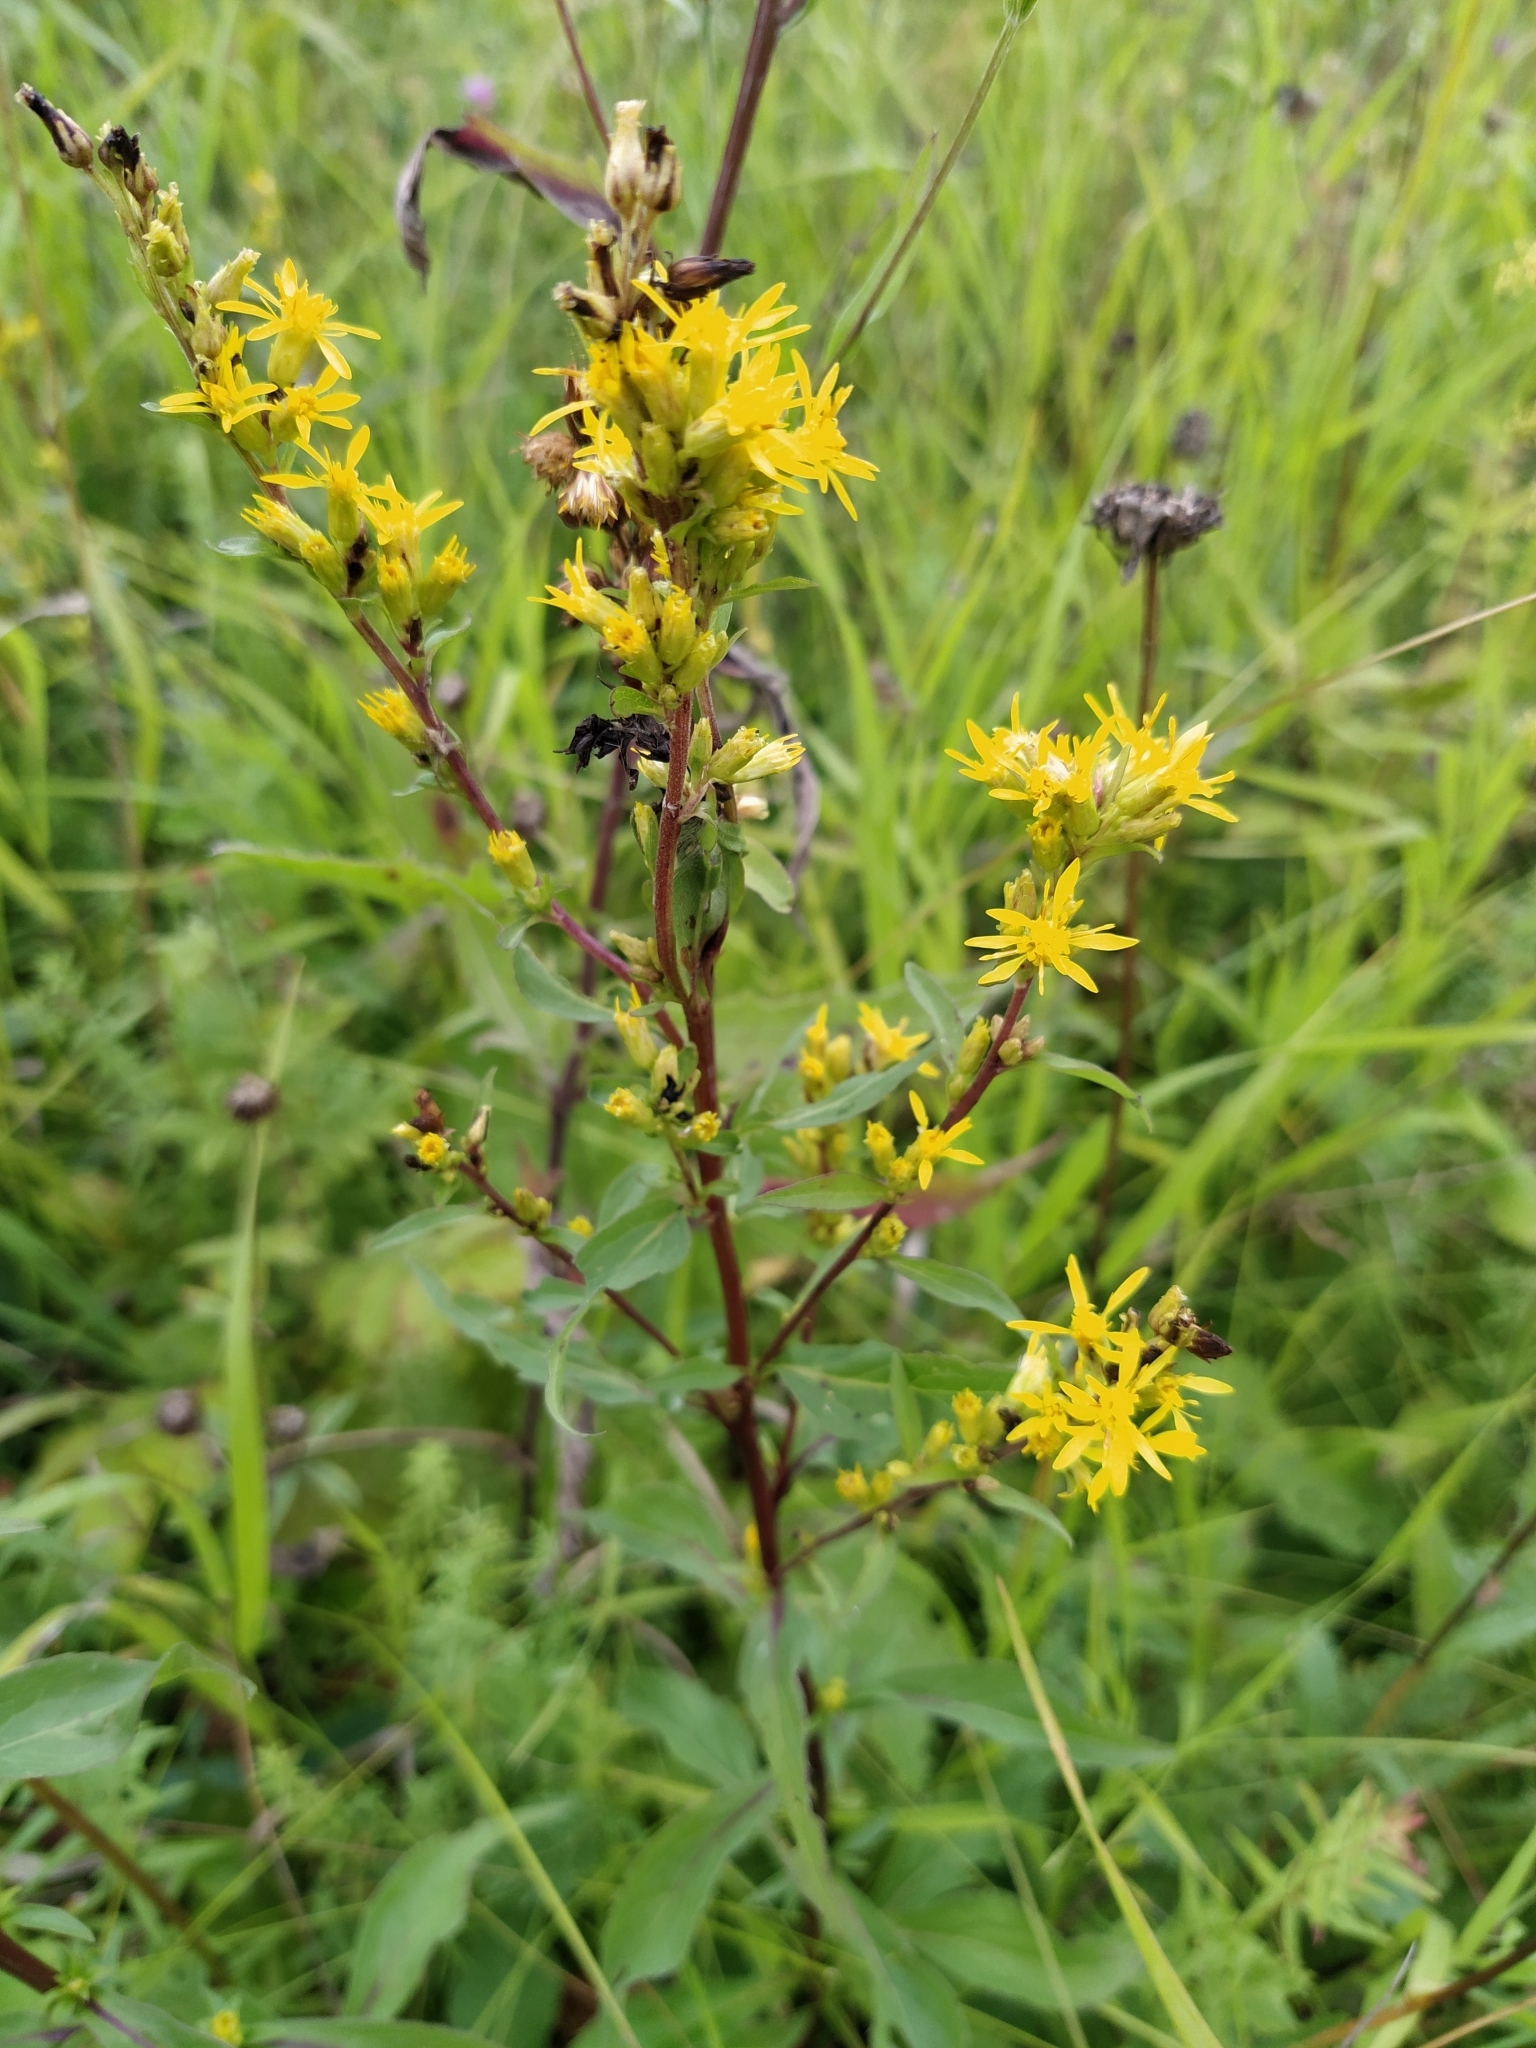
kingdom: Plantae
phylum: Tracheophyta
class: Magnoliopsida
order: Asterales
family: Asteraceae
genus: Solidago
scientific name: Solidago virgaurea
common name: Goldenrod
